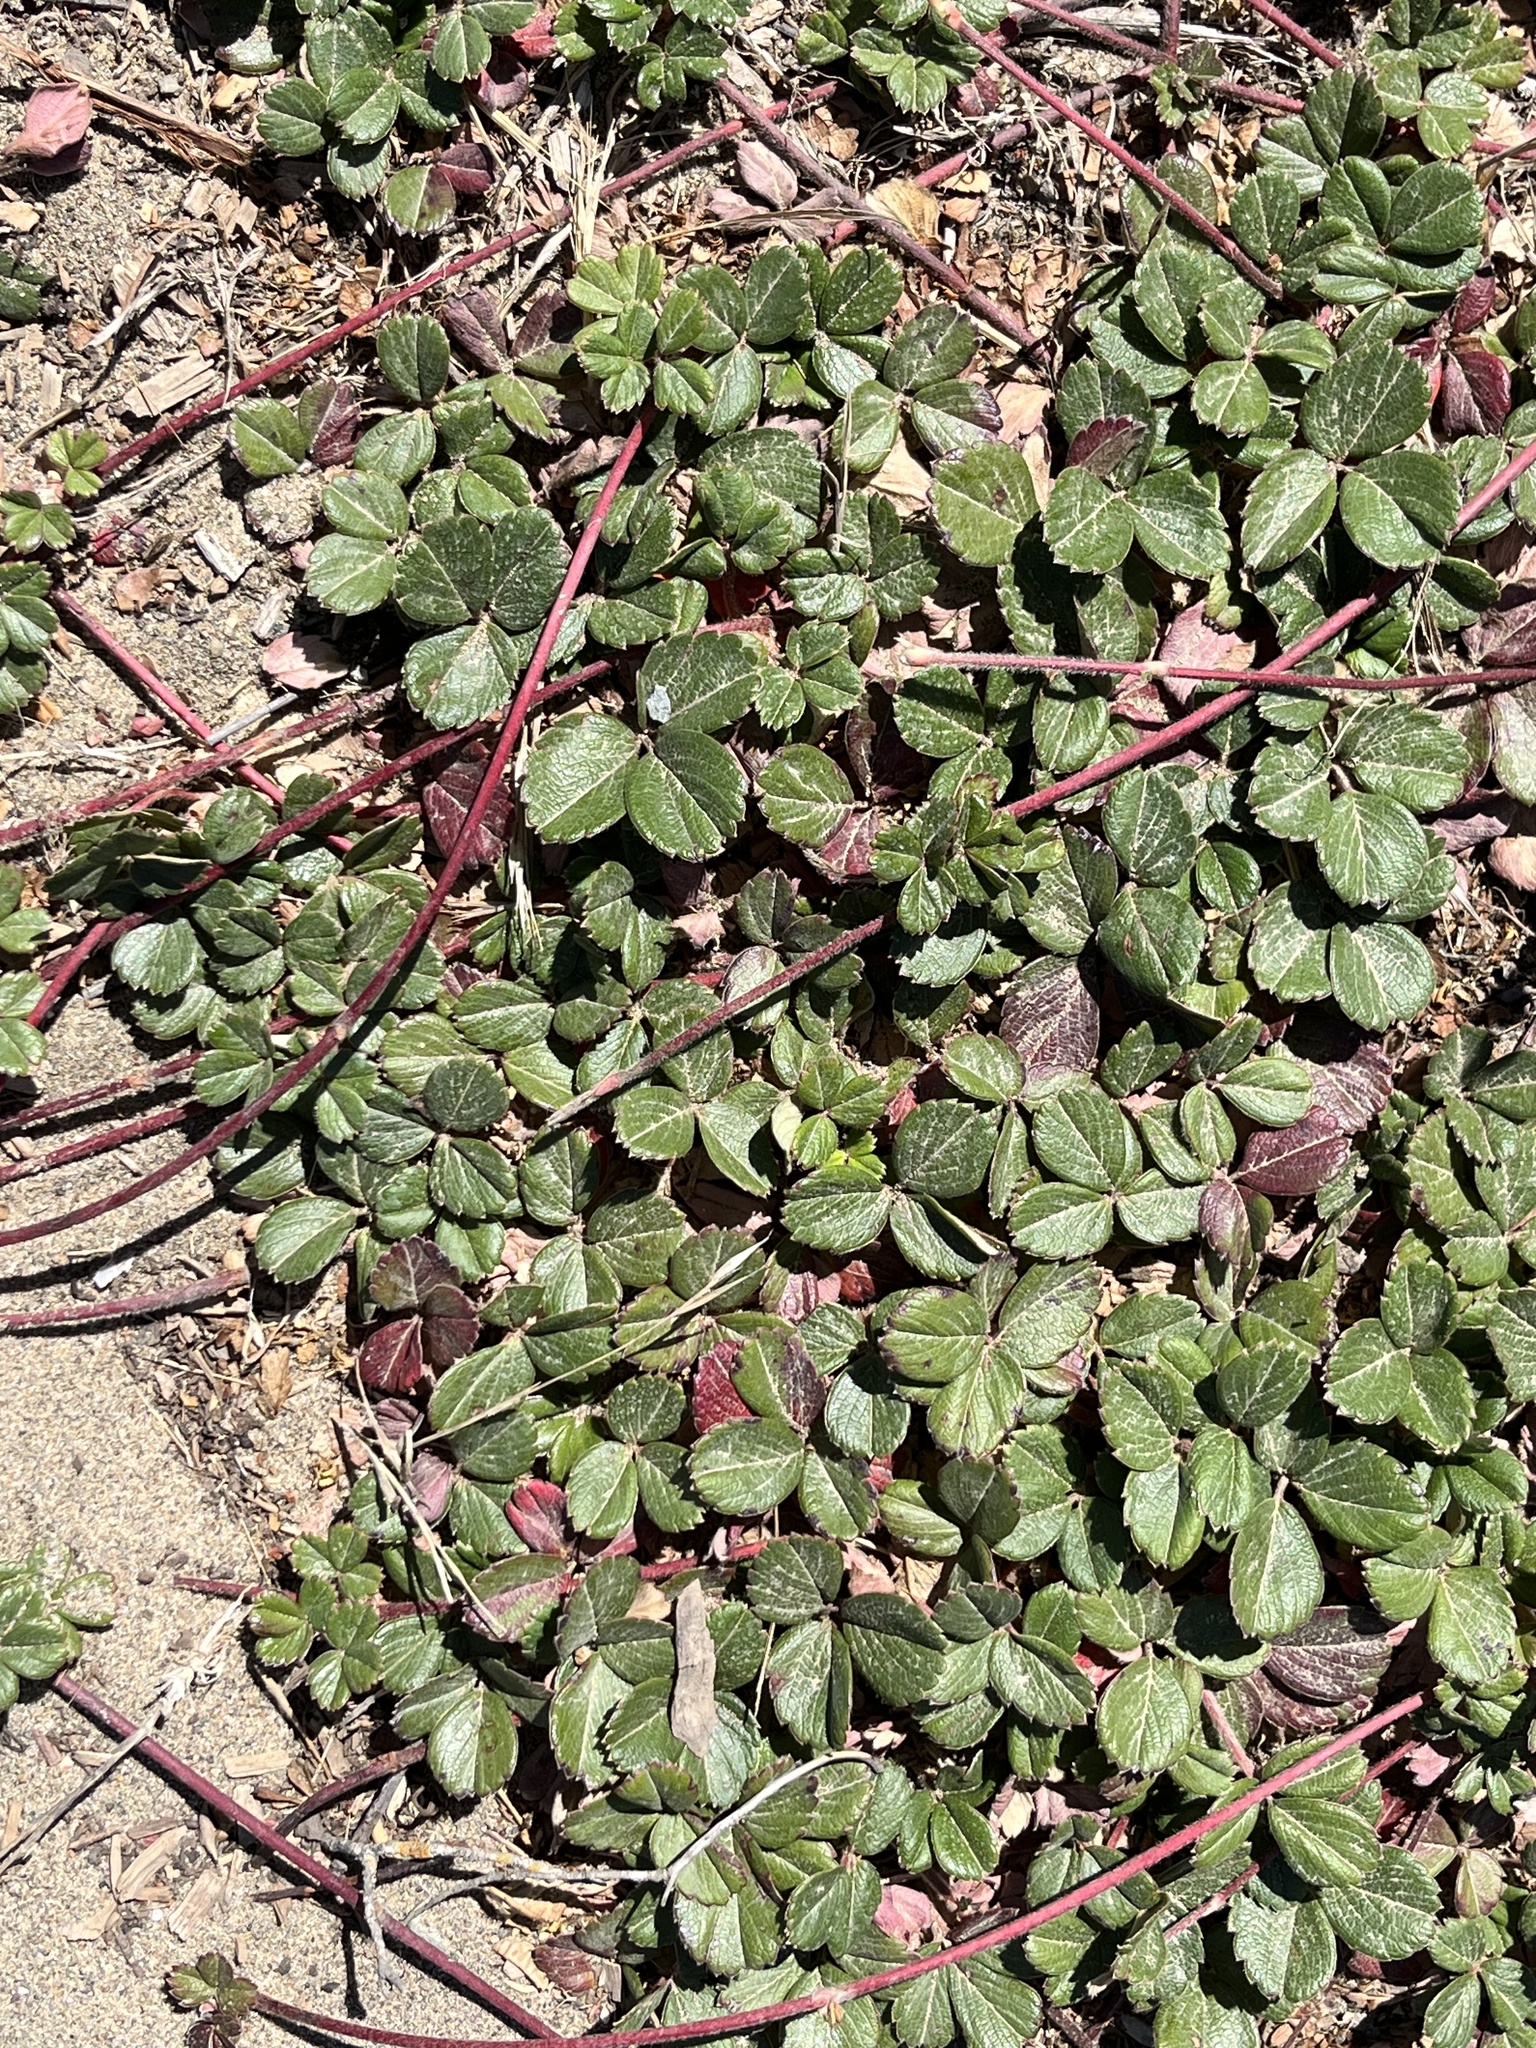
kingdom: Plantae
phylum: Tracheophyta
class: Magnoliopsida
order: Rosales
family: Rosaceae
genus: Fragaria
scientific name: Fragaria chiloensis
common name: Beach strawberry
